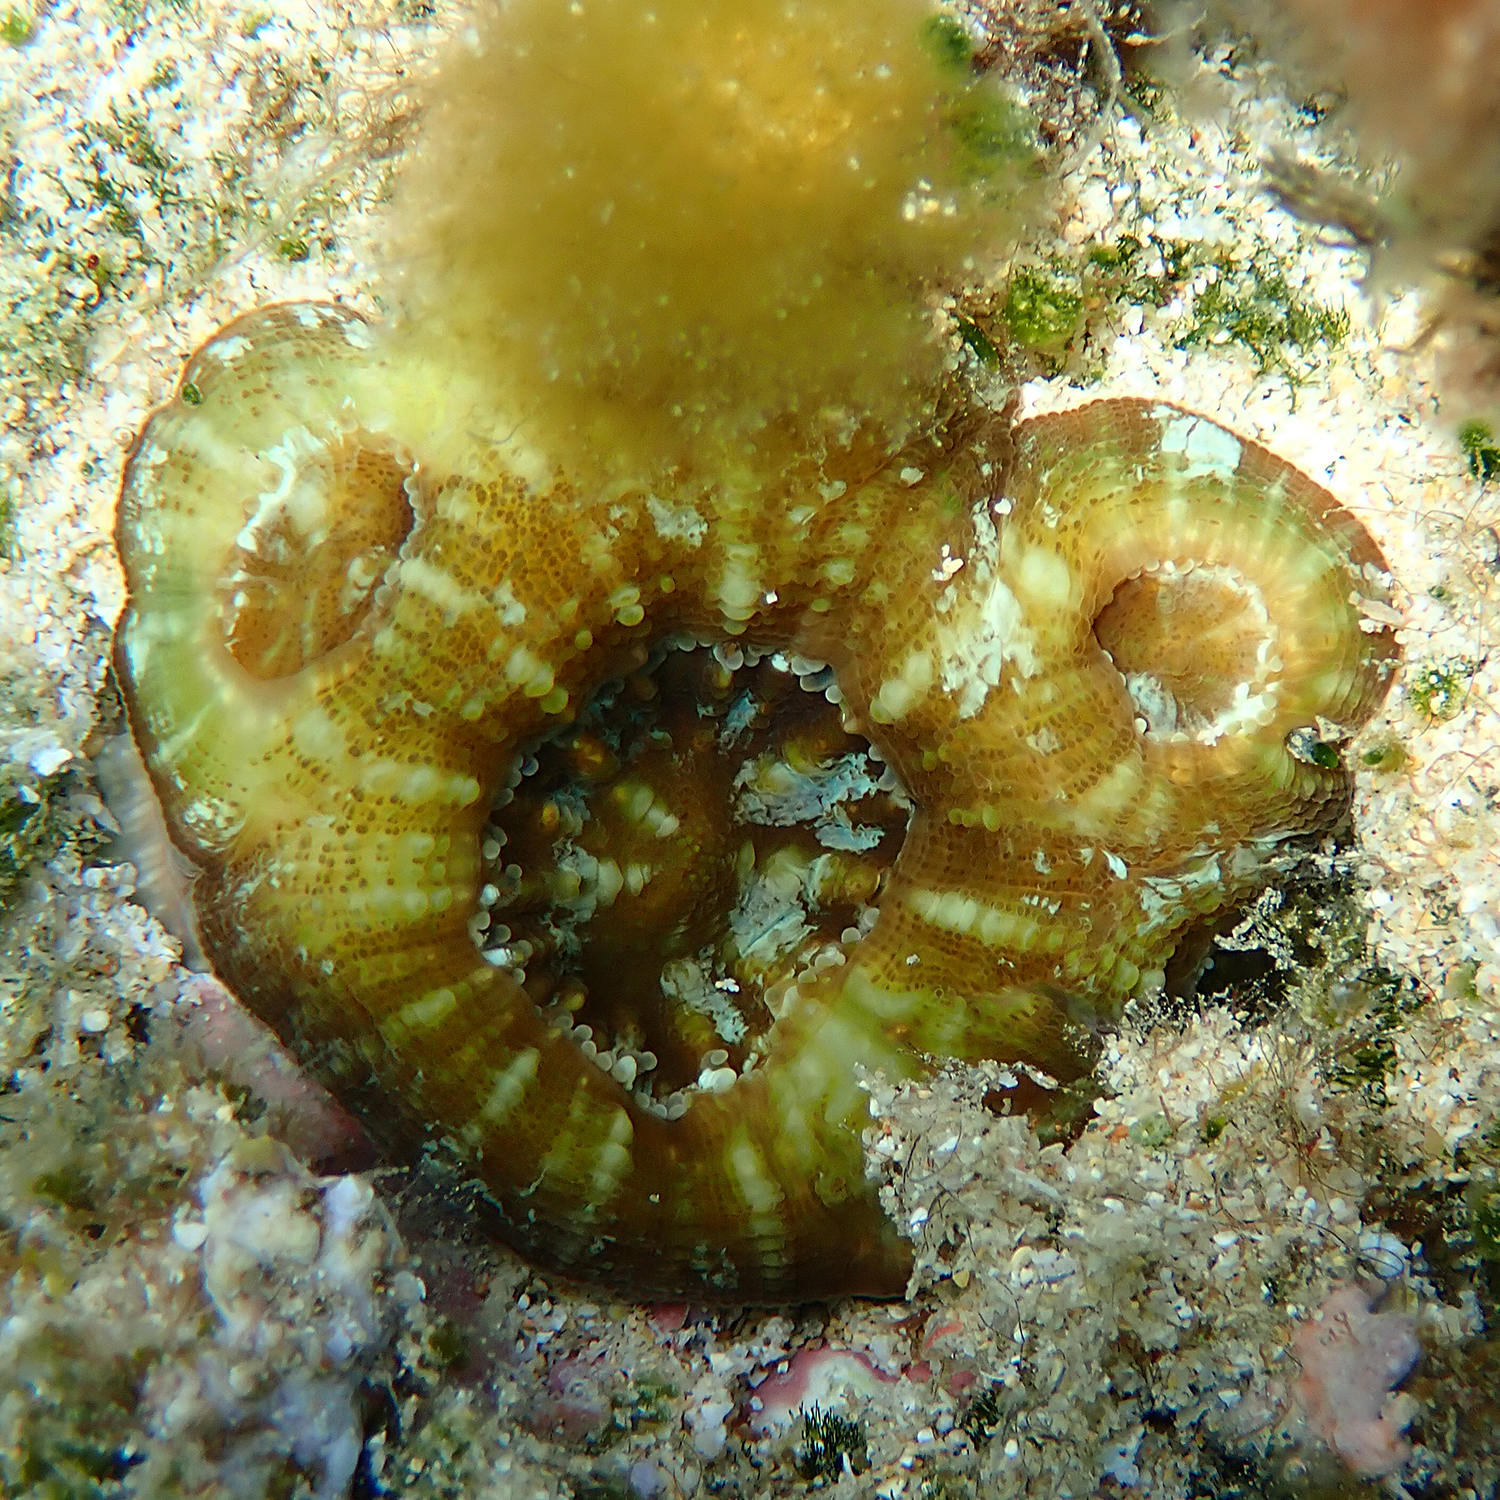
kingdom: Animalia
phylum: Cnidaria
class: Anthozoa
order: Scleractinia
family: Lobophylliidae
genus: Homophyllia
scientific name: Homophyllia australis
